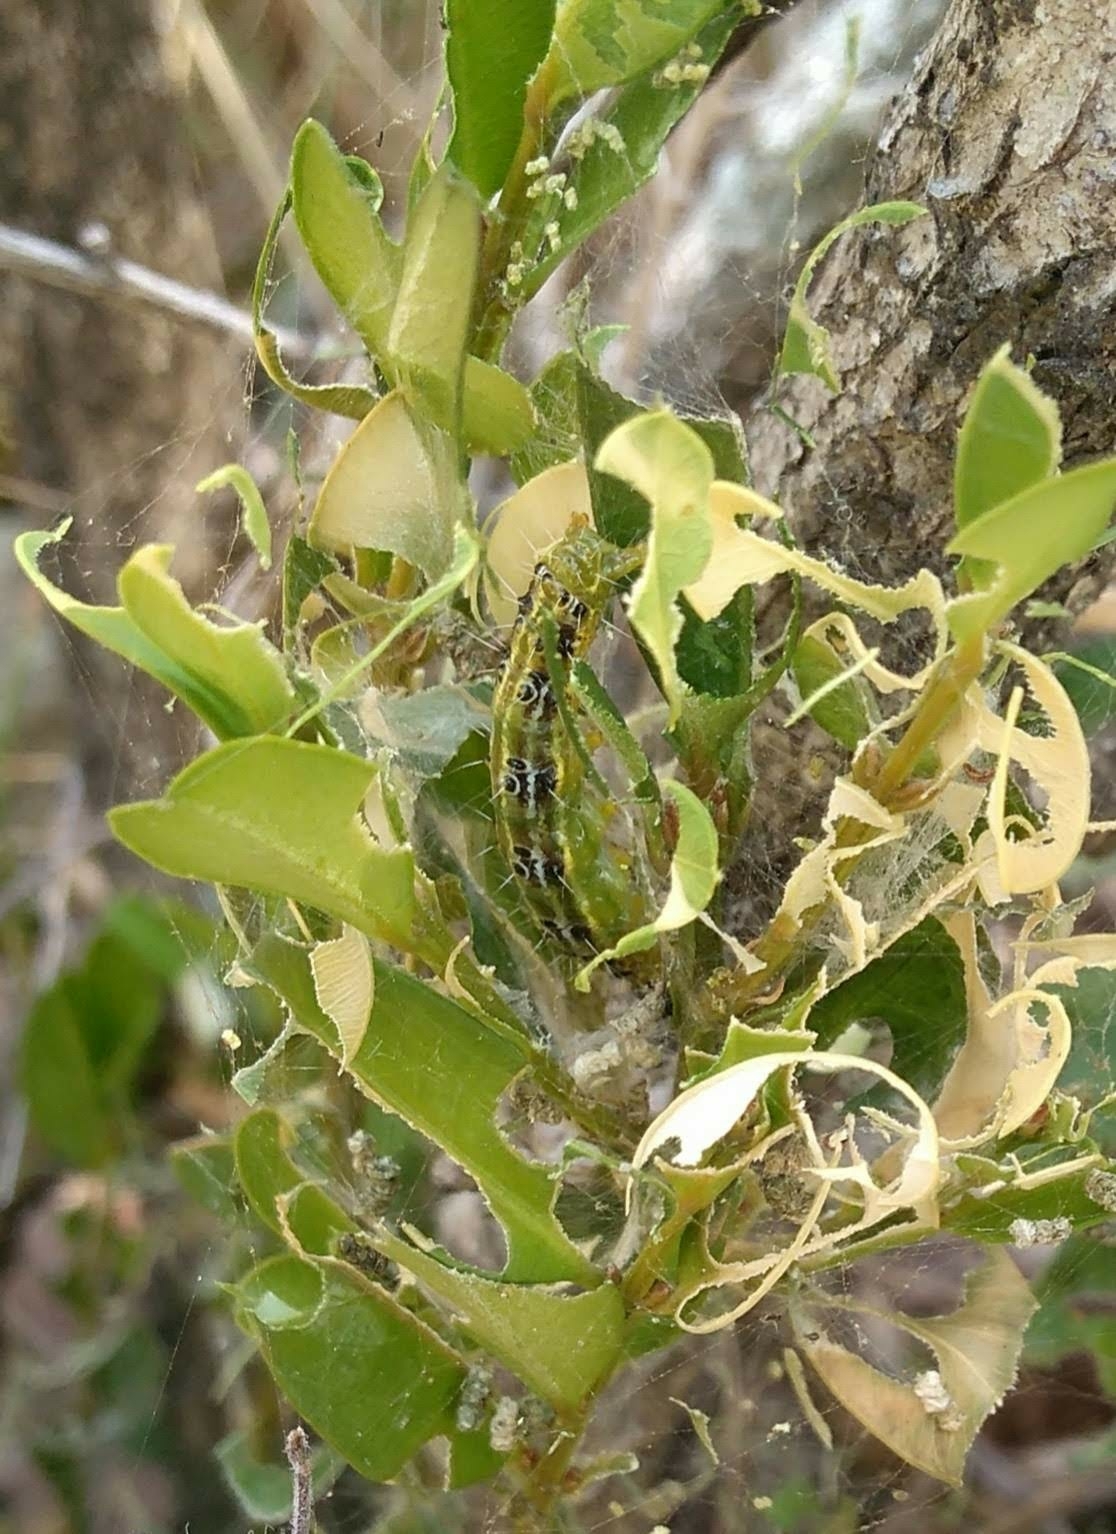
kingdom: Animalia
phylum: Arthropoda
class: Insecta
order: Lepidoptera
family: Crambidae
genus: Cydalima
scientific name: Cydalima perspectalis
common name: Box tree moth
